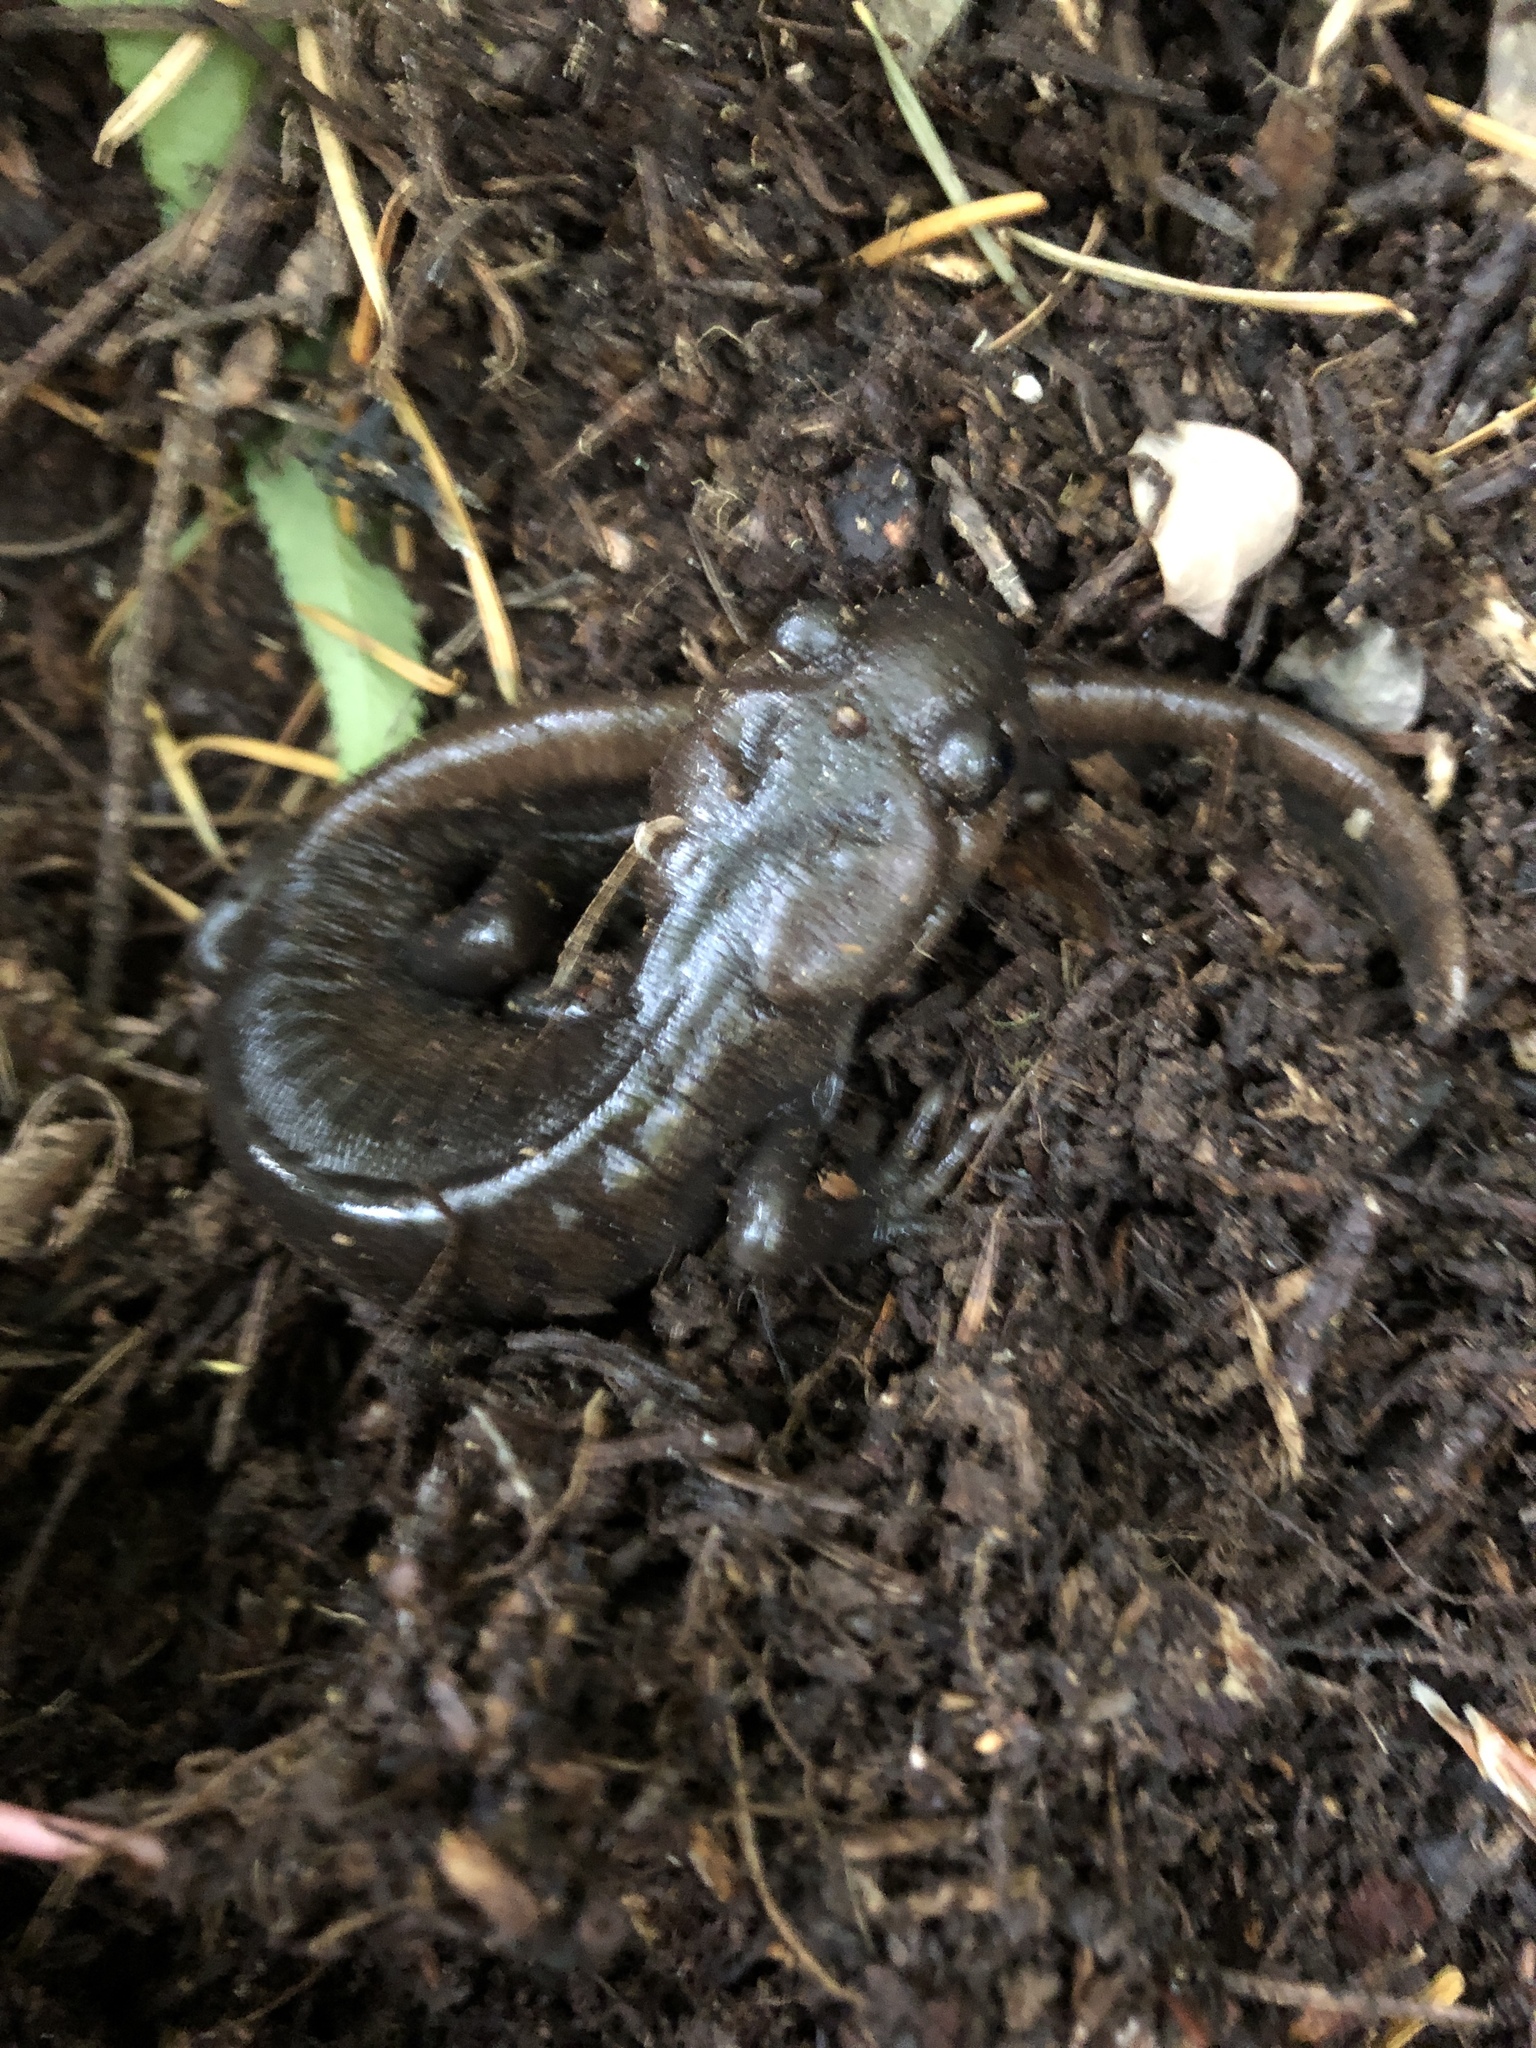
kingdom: Animalia
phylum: Chordata
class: Amphibia
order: Caudata
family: Ambystomatidae
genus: Ambystoma
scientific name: Ambystoma gracile
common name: Northwestern salamander
